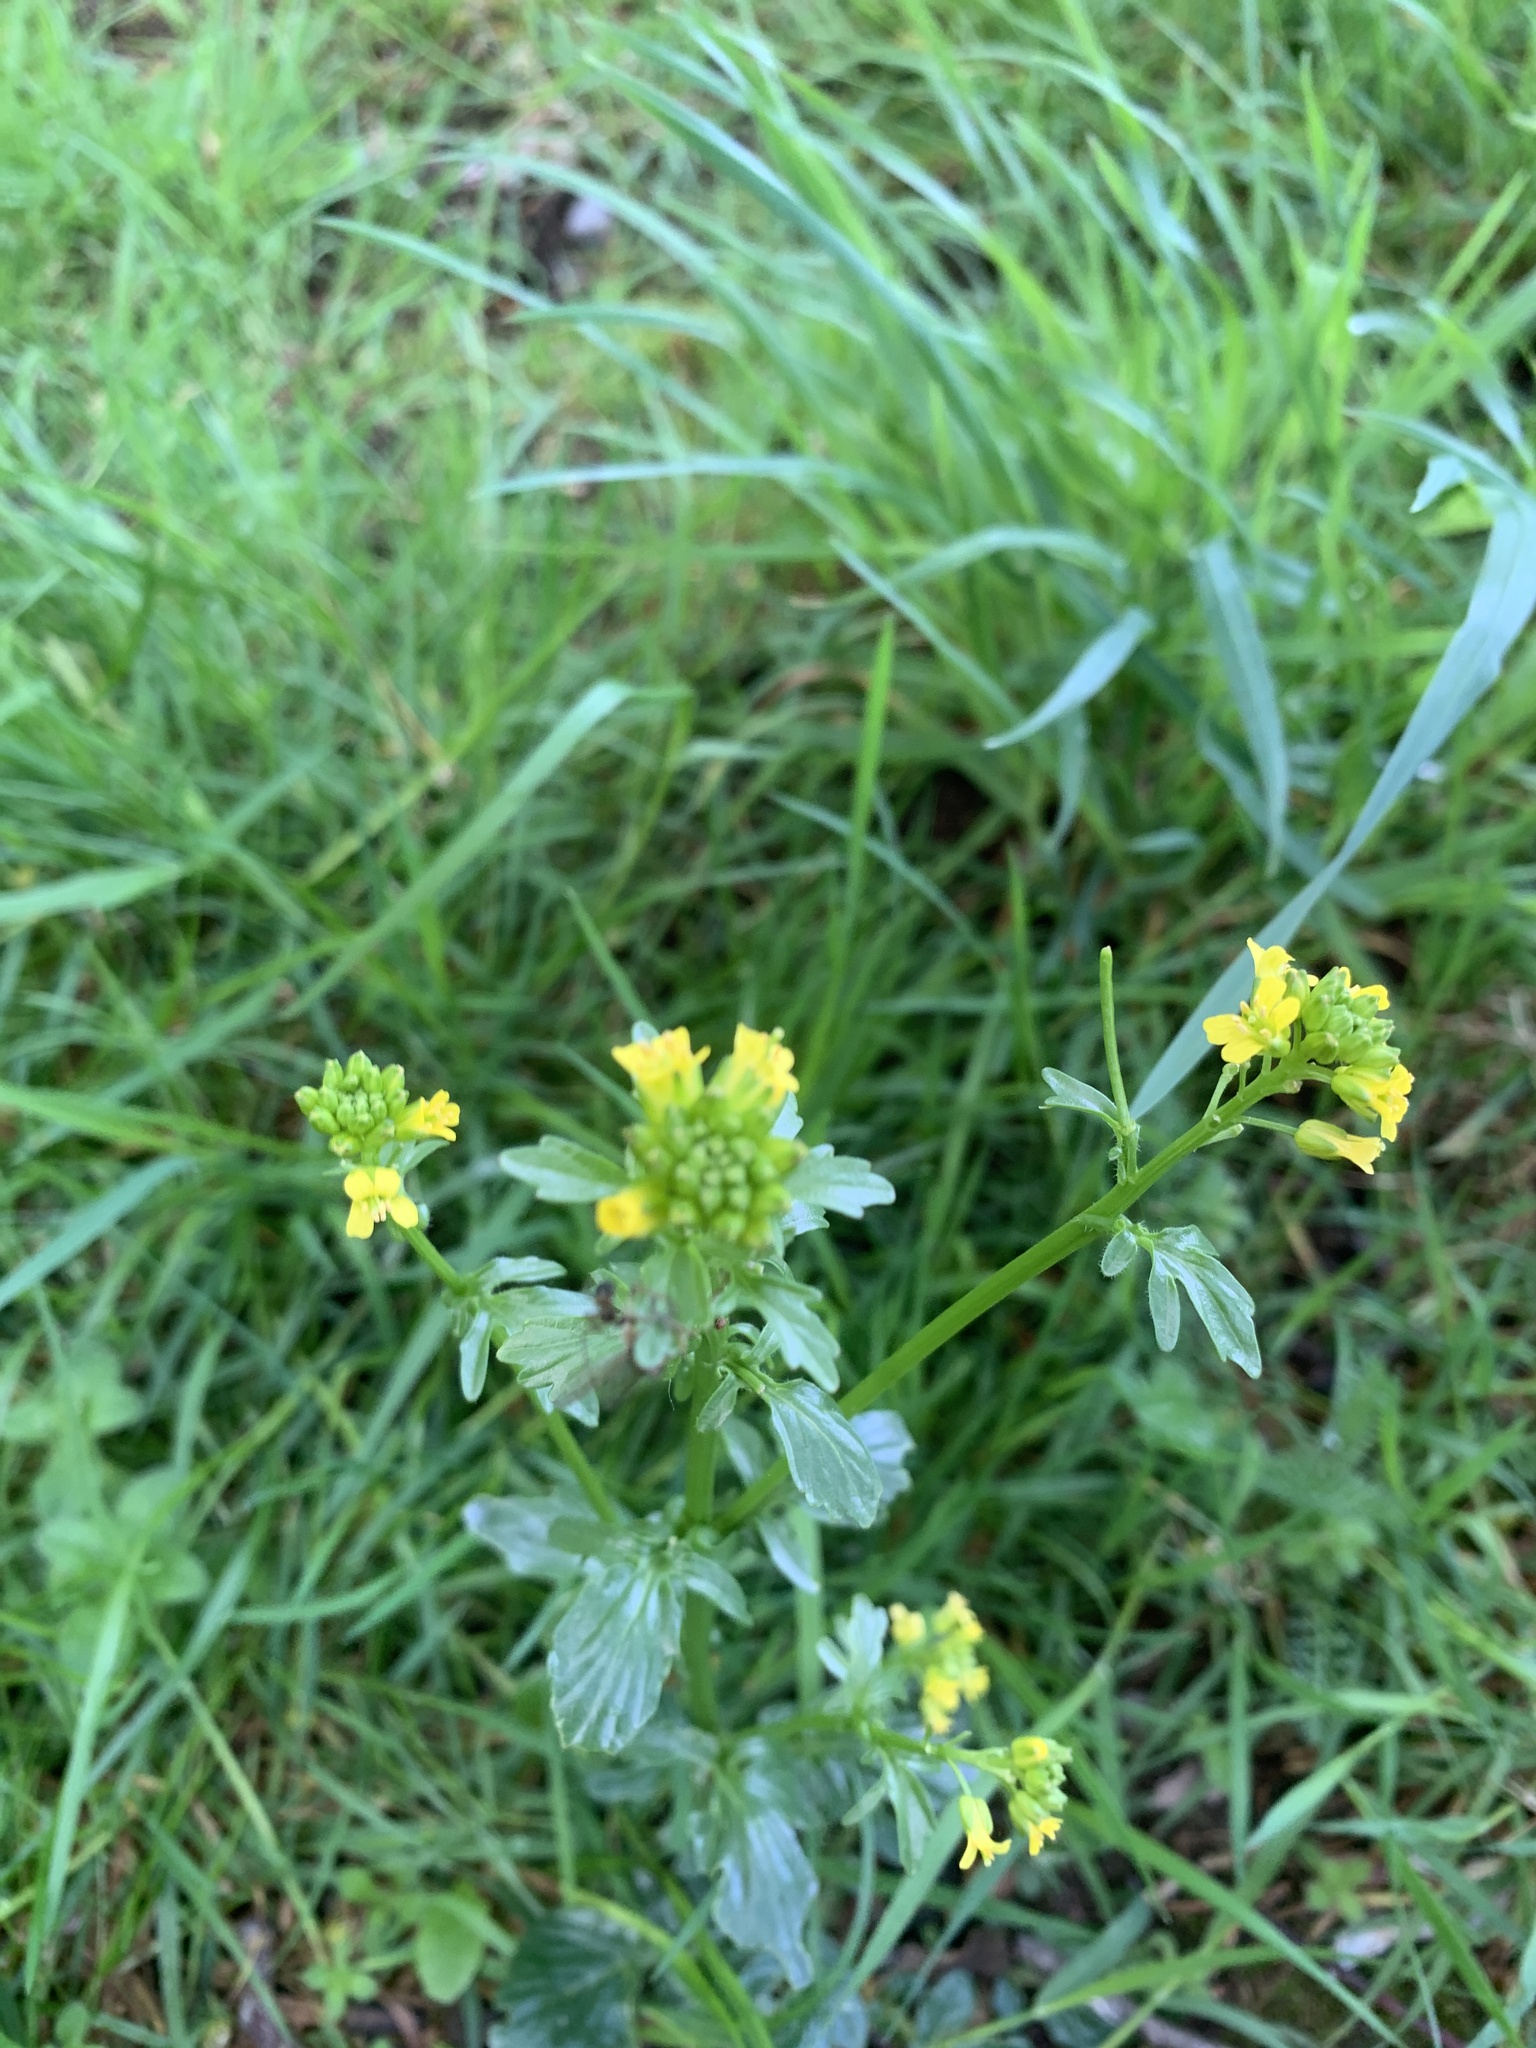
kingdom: Plantae
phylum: Tracheophyta
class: Magnoliopsida
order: Brassicales
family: Brassicaceae
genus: Barbarea
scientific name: Barbarea verna
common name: American cress
